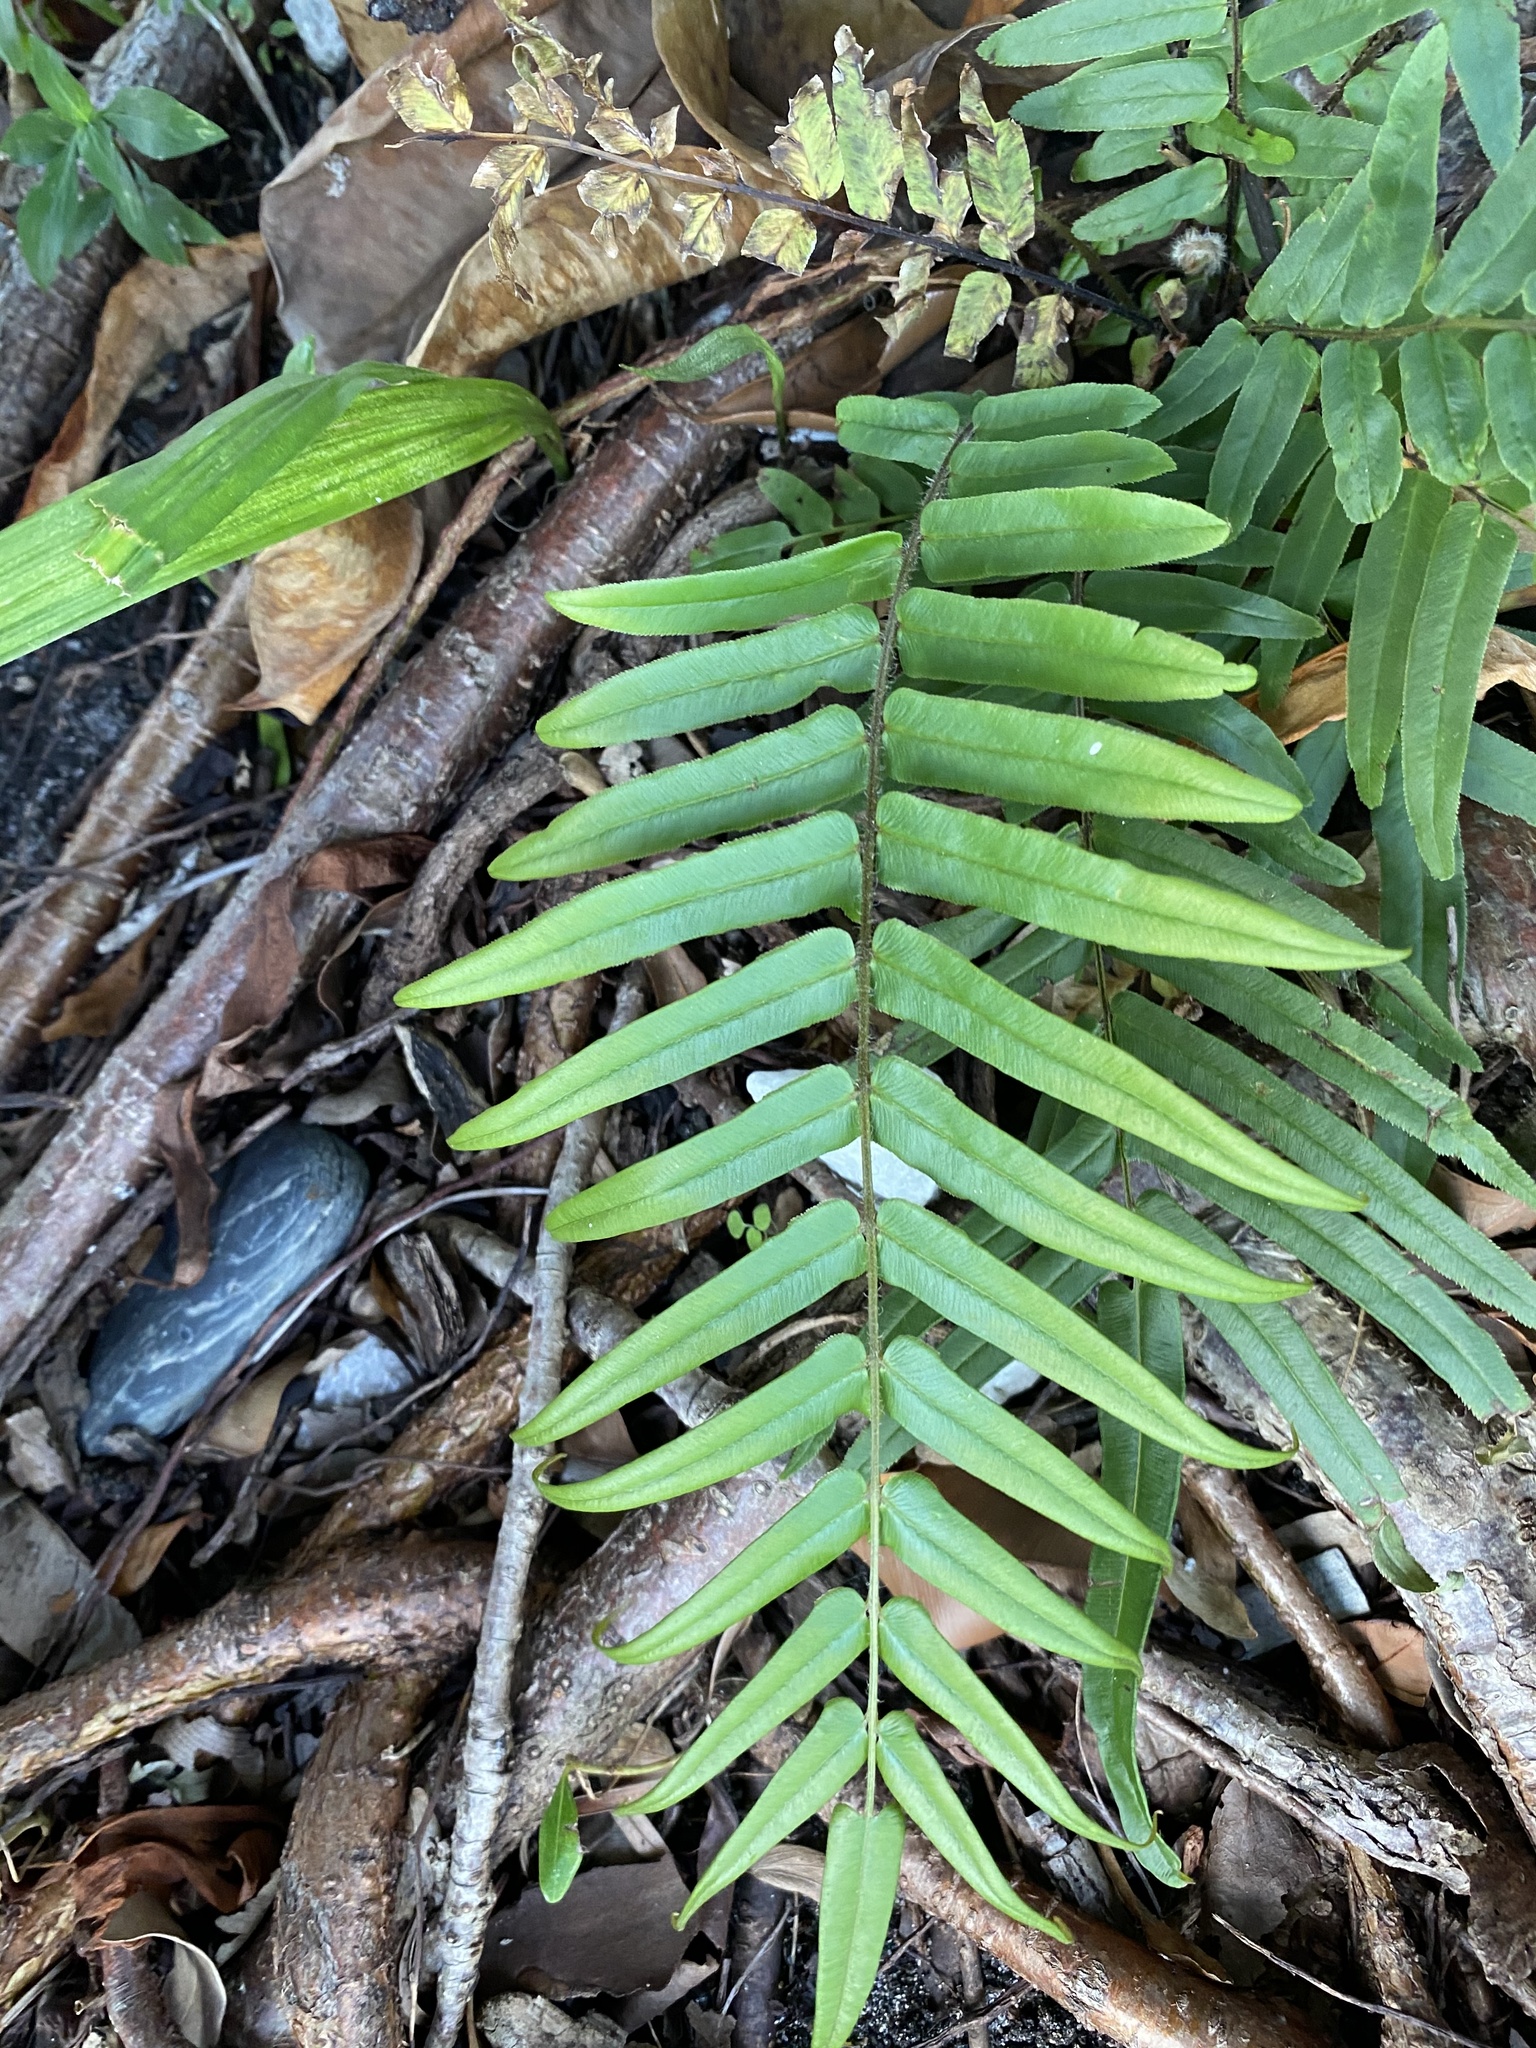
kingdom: Plantae
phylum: Tracheophyta
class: Polypodiopsida
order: Polypodiales
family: Pteridaceae
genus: Pteris
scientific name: Pteris vittata
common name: Ladder brake
